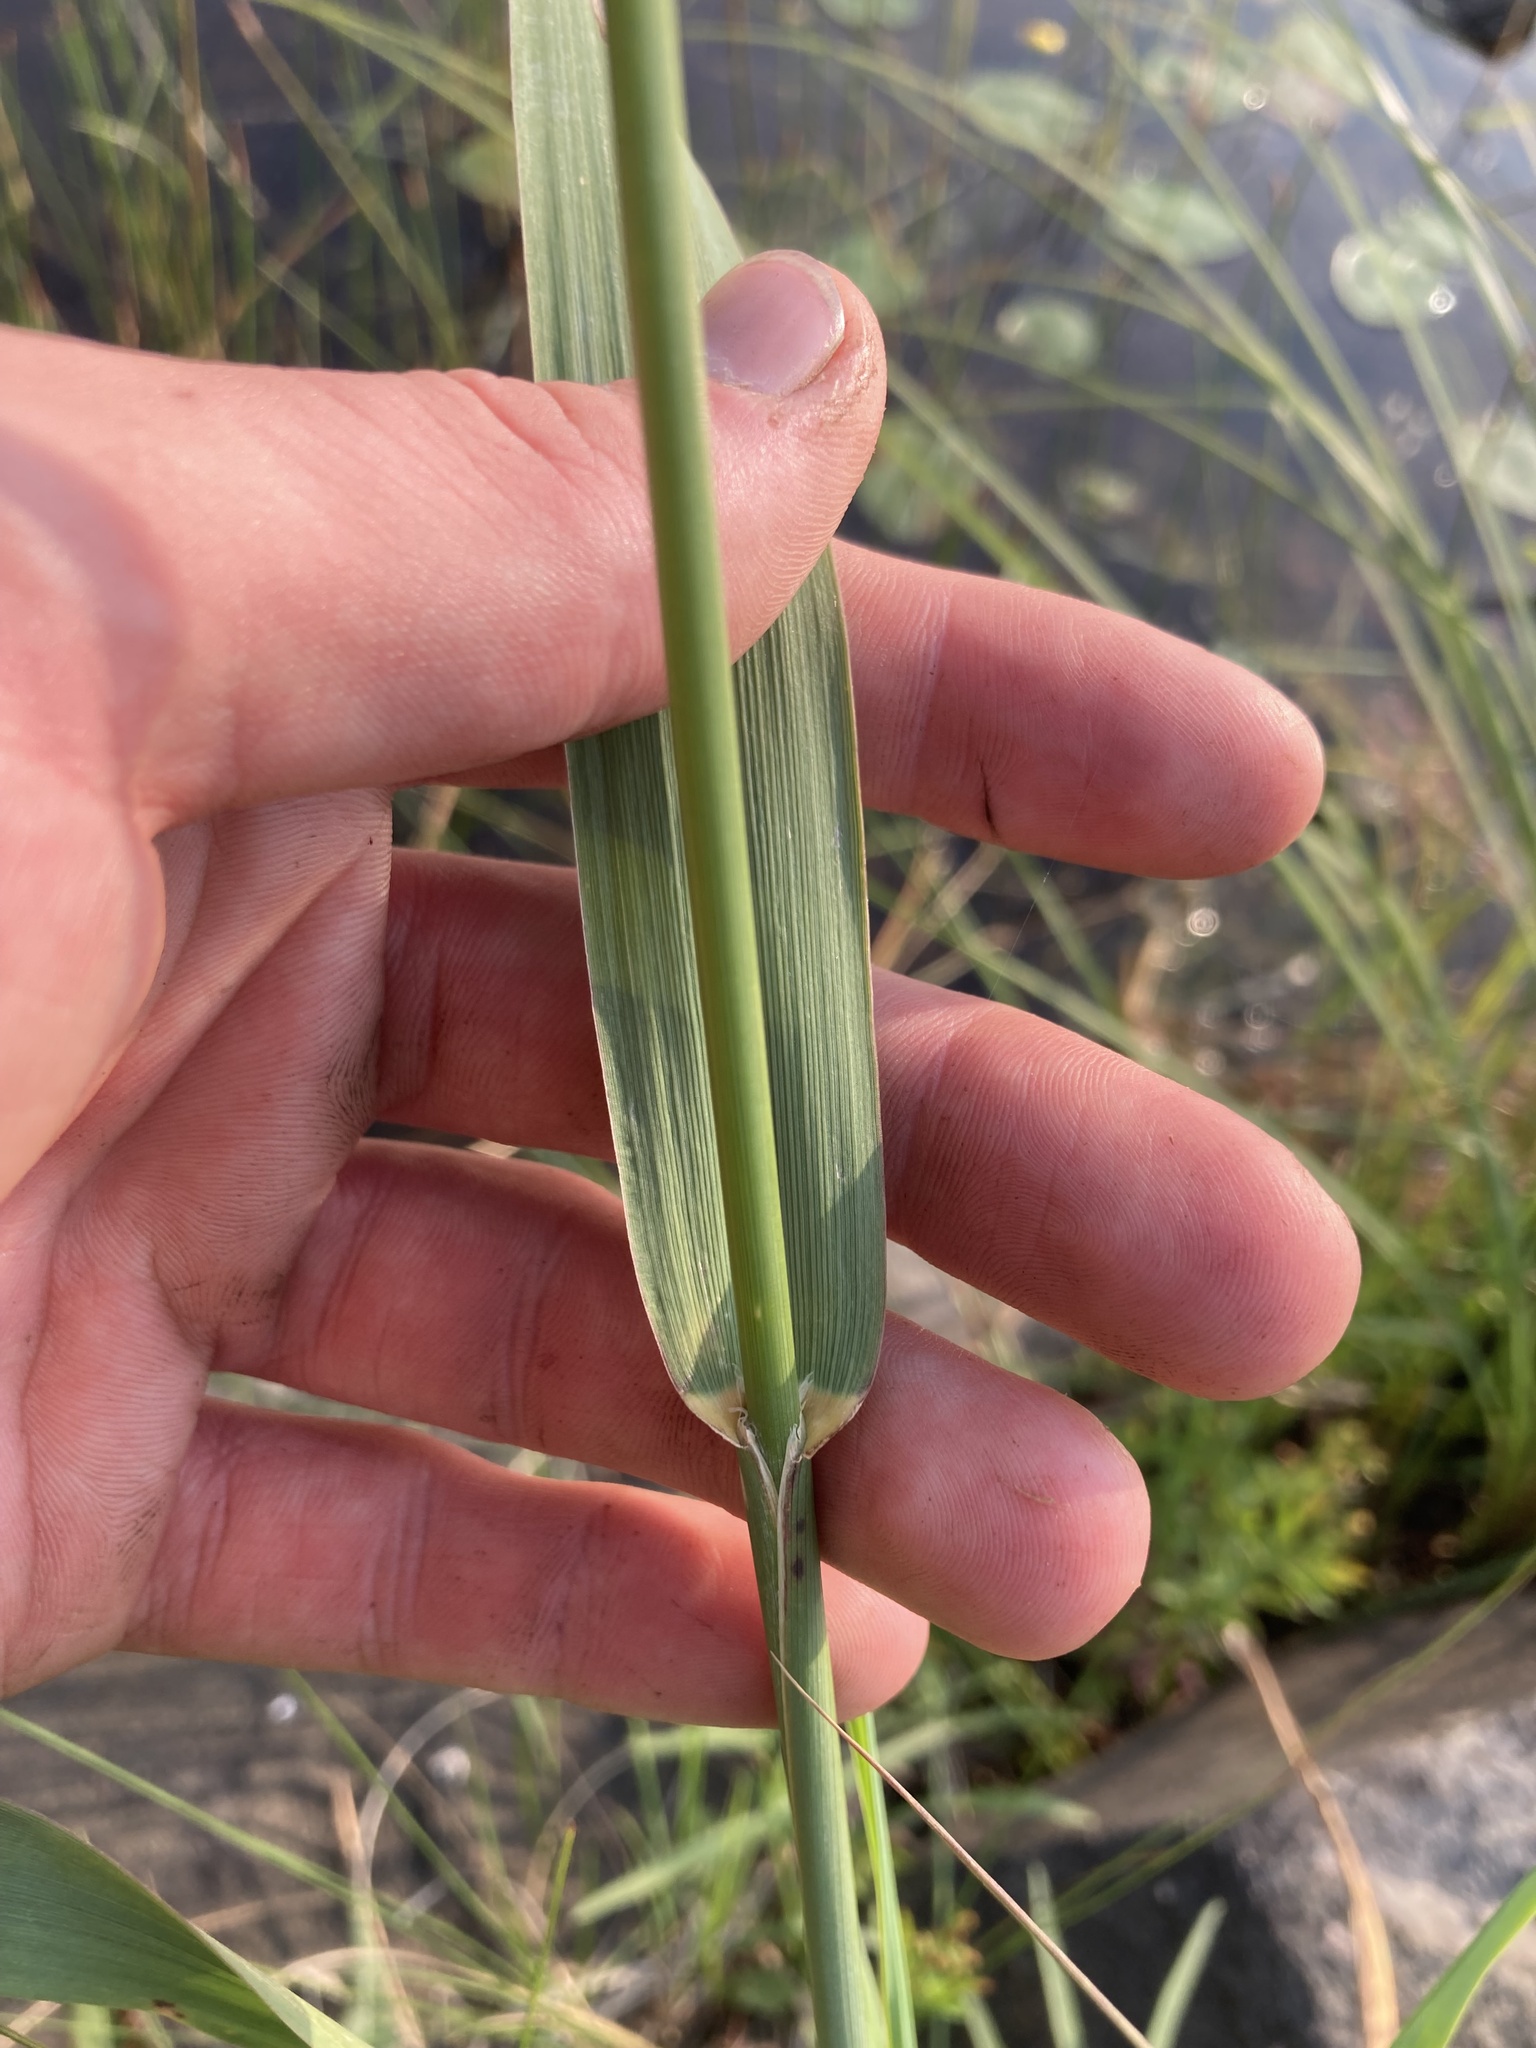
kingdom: Plantae
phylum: Tracheophyta
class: Liliopsida
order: Poales
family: Poaceae
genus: Phalaris
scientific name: Phalaris arundinacea
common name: Reed canary-grass
